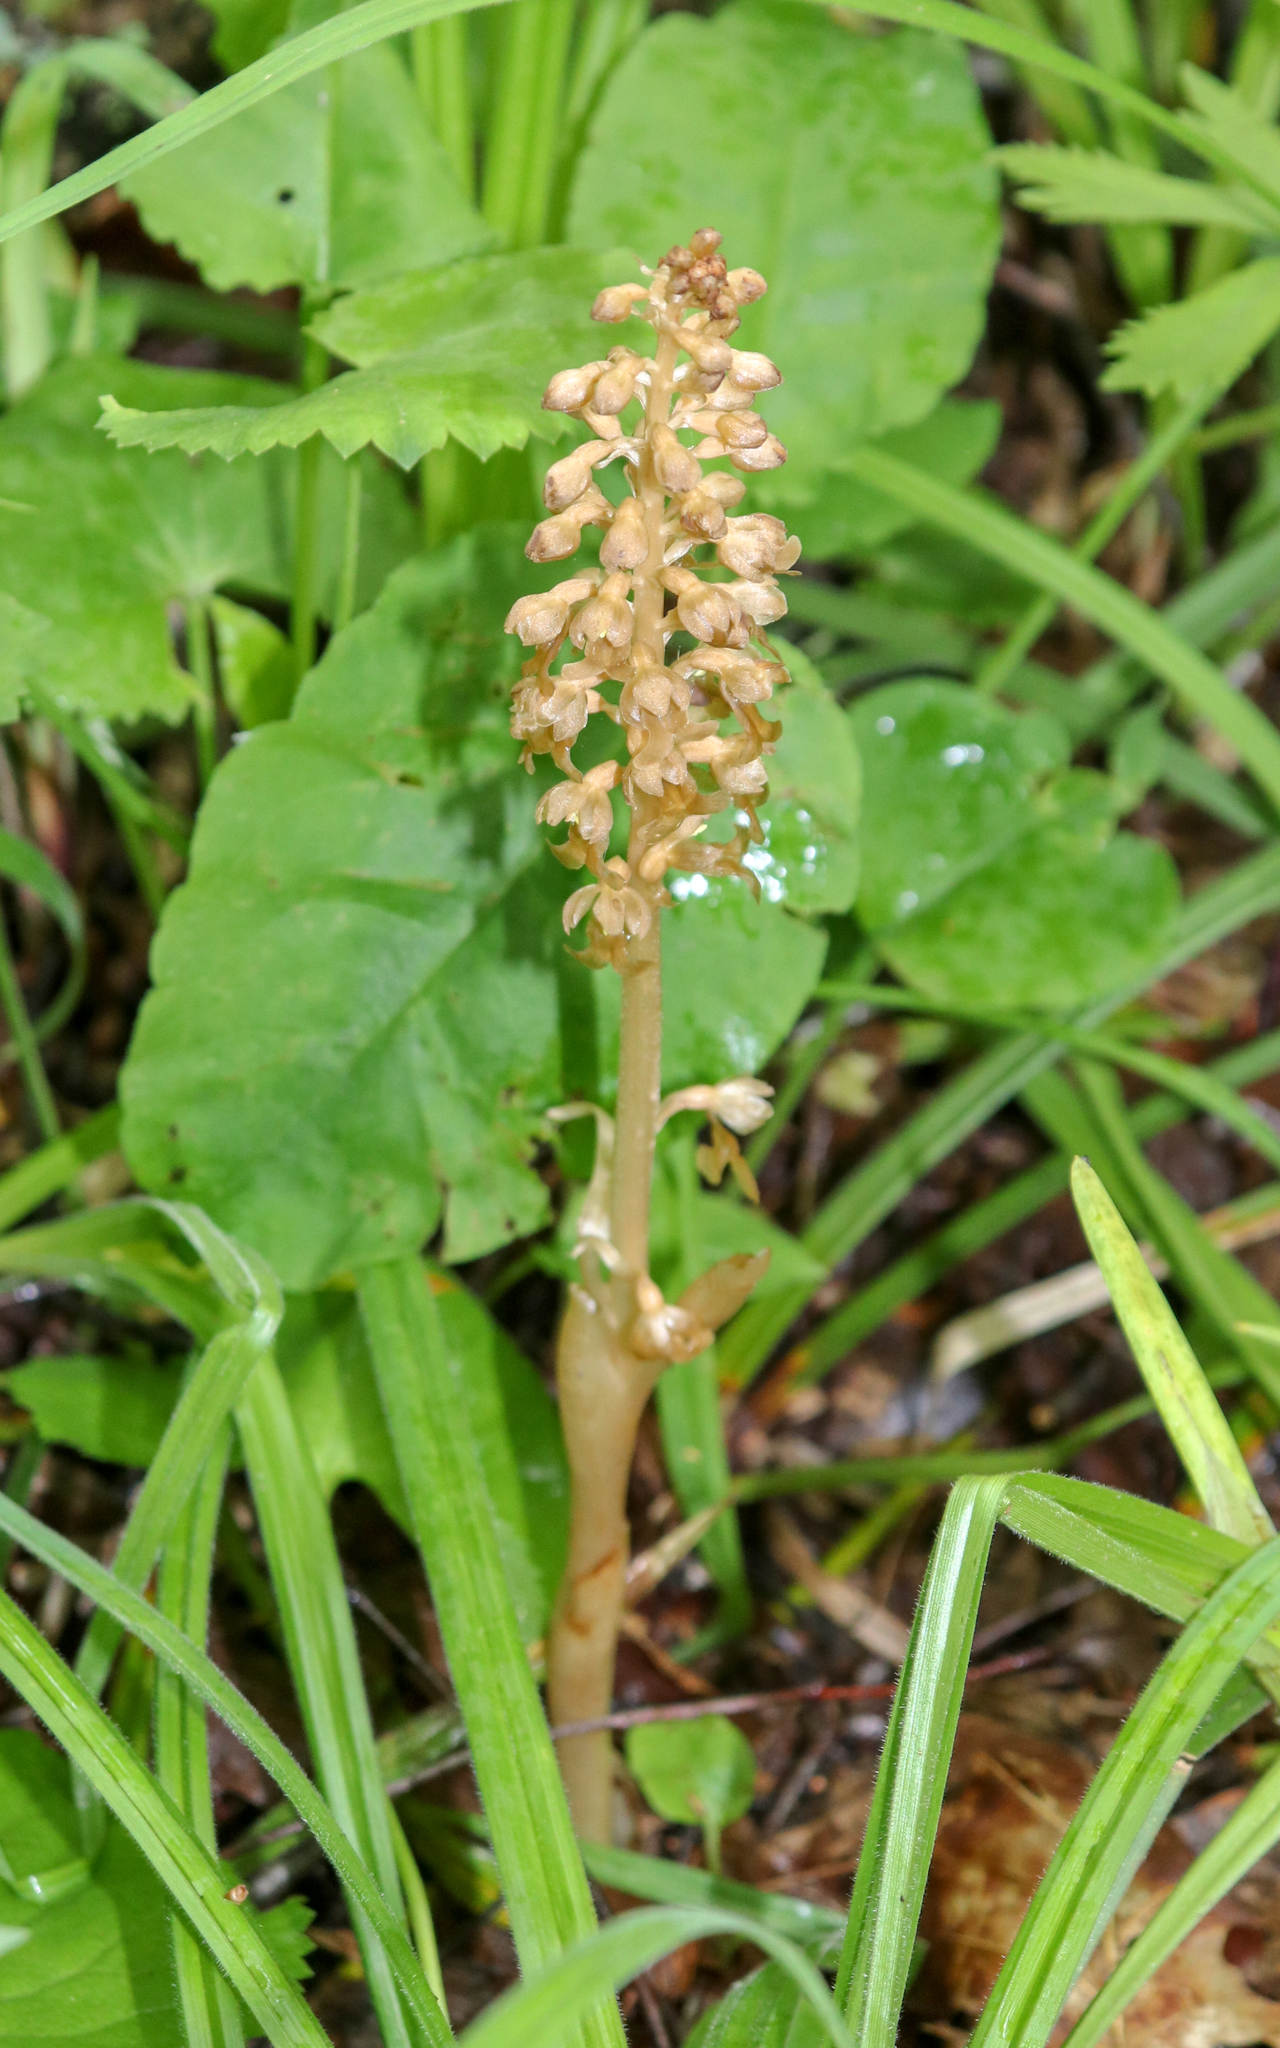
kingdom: Plantae
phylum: Tracheophyta
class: Liliopsida
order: Asparagales
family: Orchidaceae
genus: Neottia
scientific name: Neottia nidus-avis
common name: Bird's-nest orchid
